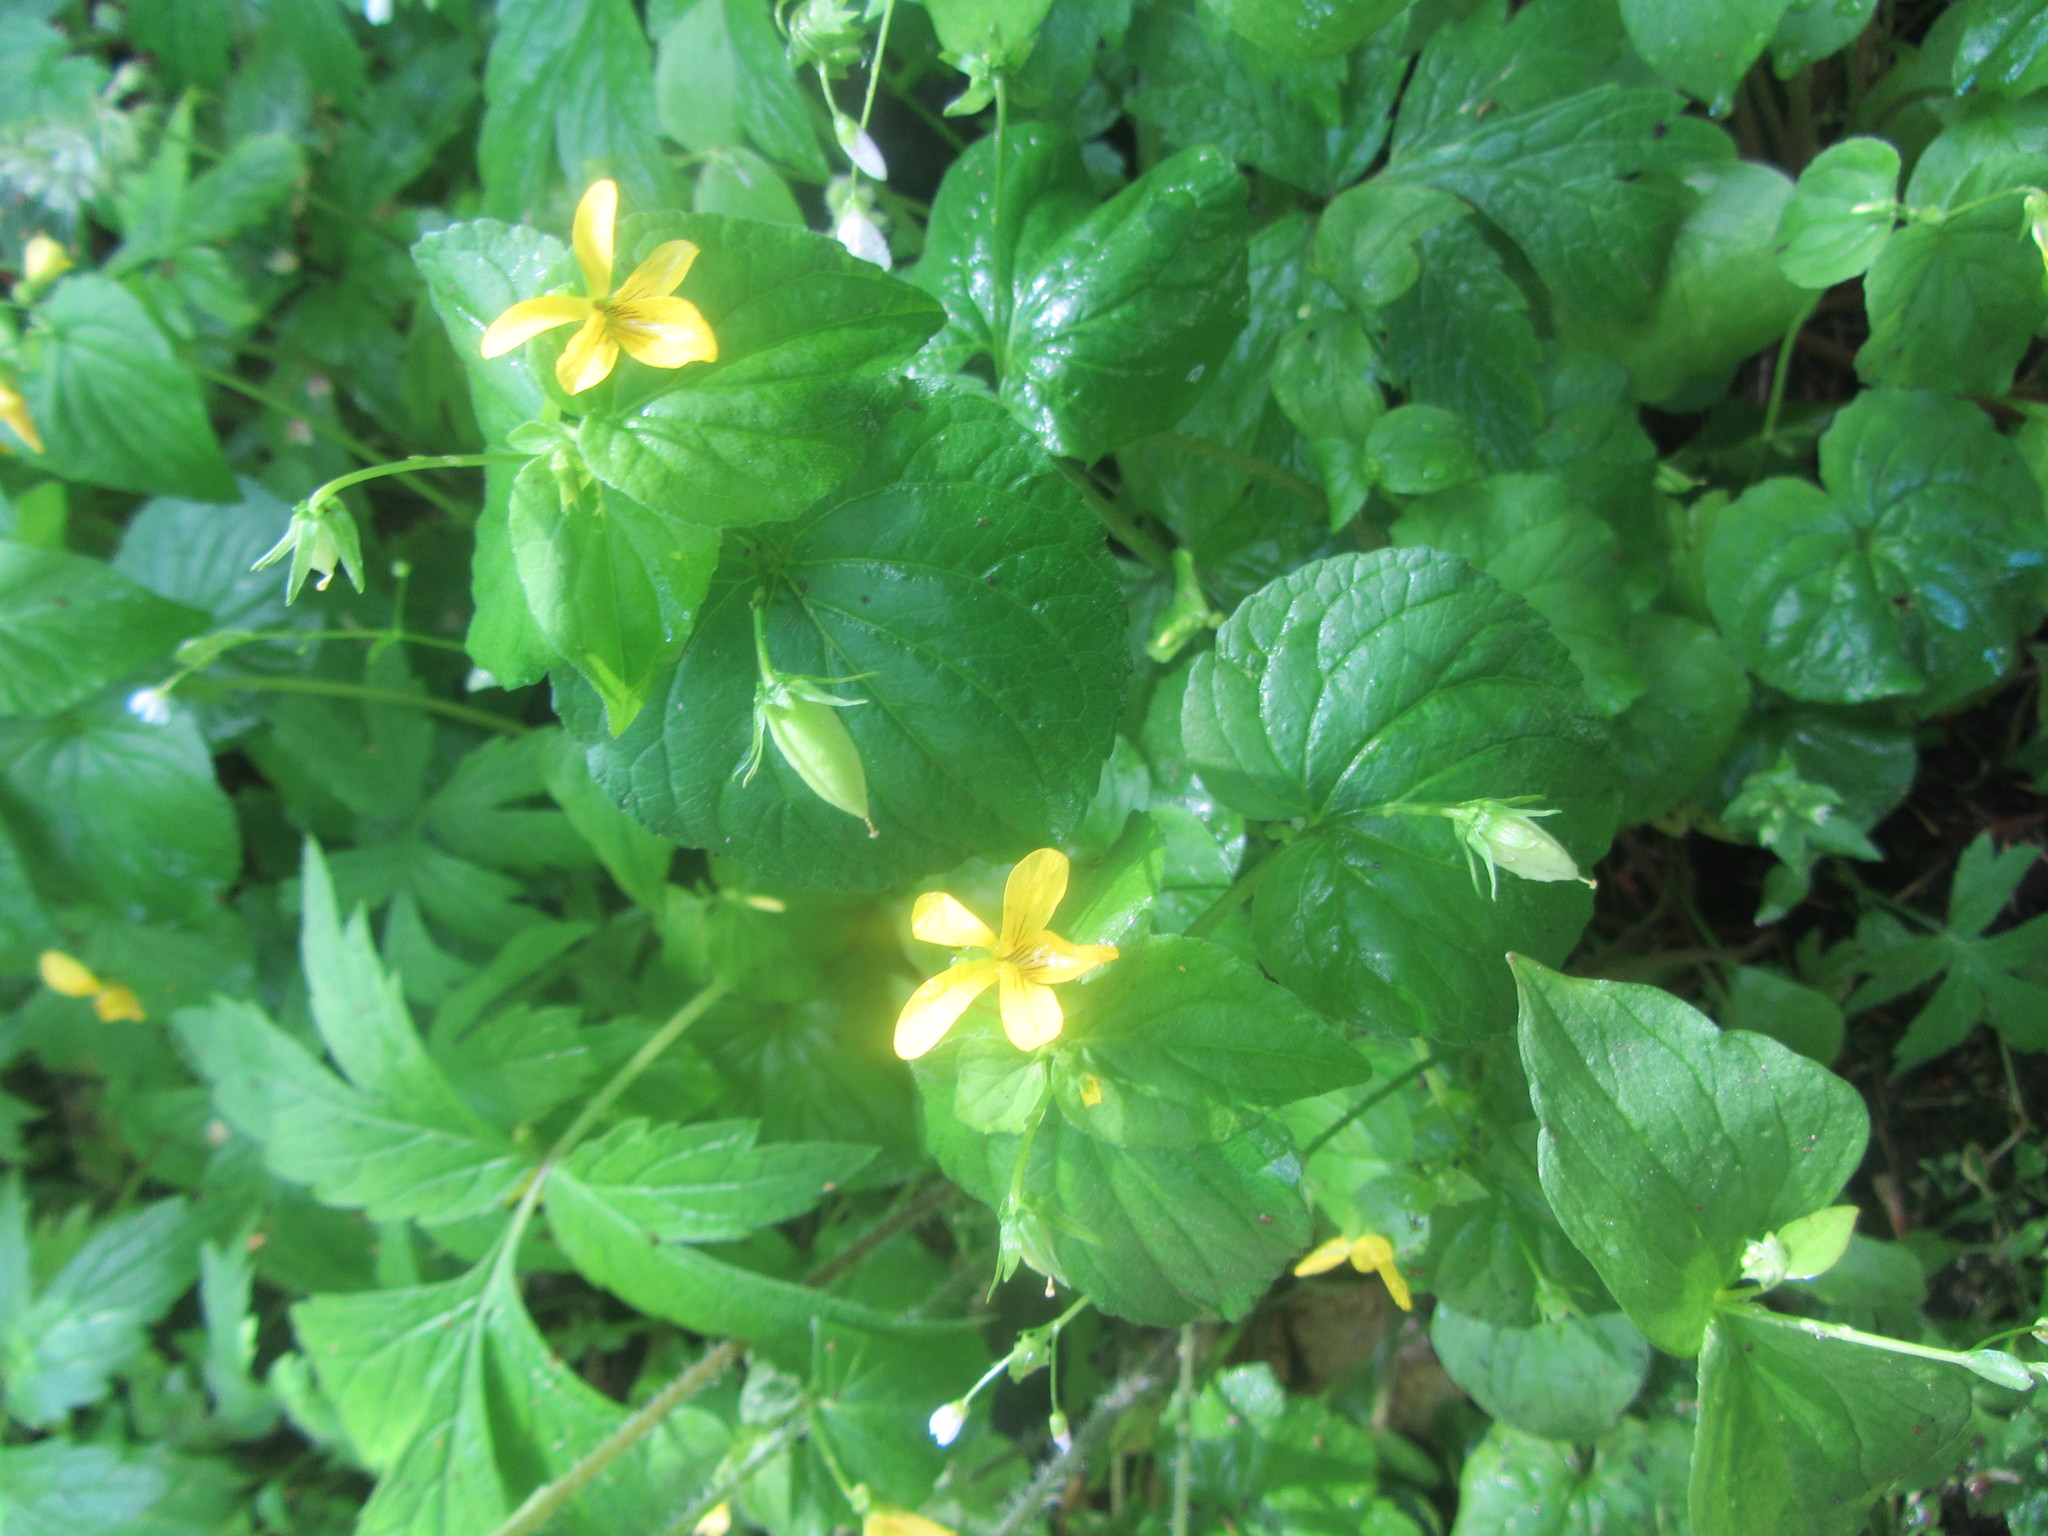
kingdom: Plantae
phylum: Tracheophyta
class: Magnoliopsida
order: Malpighiales
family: Violaceae
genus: Viola
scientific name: Viola glabella
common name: Stream violet
